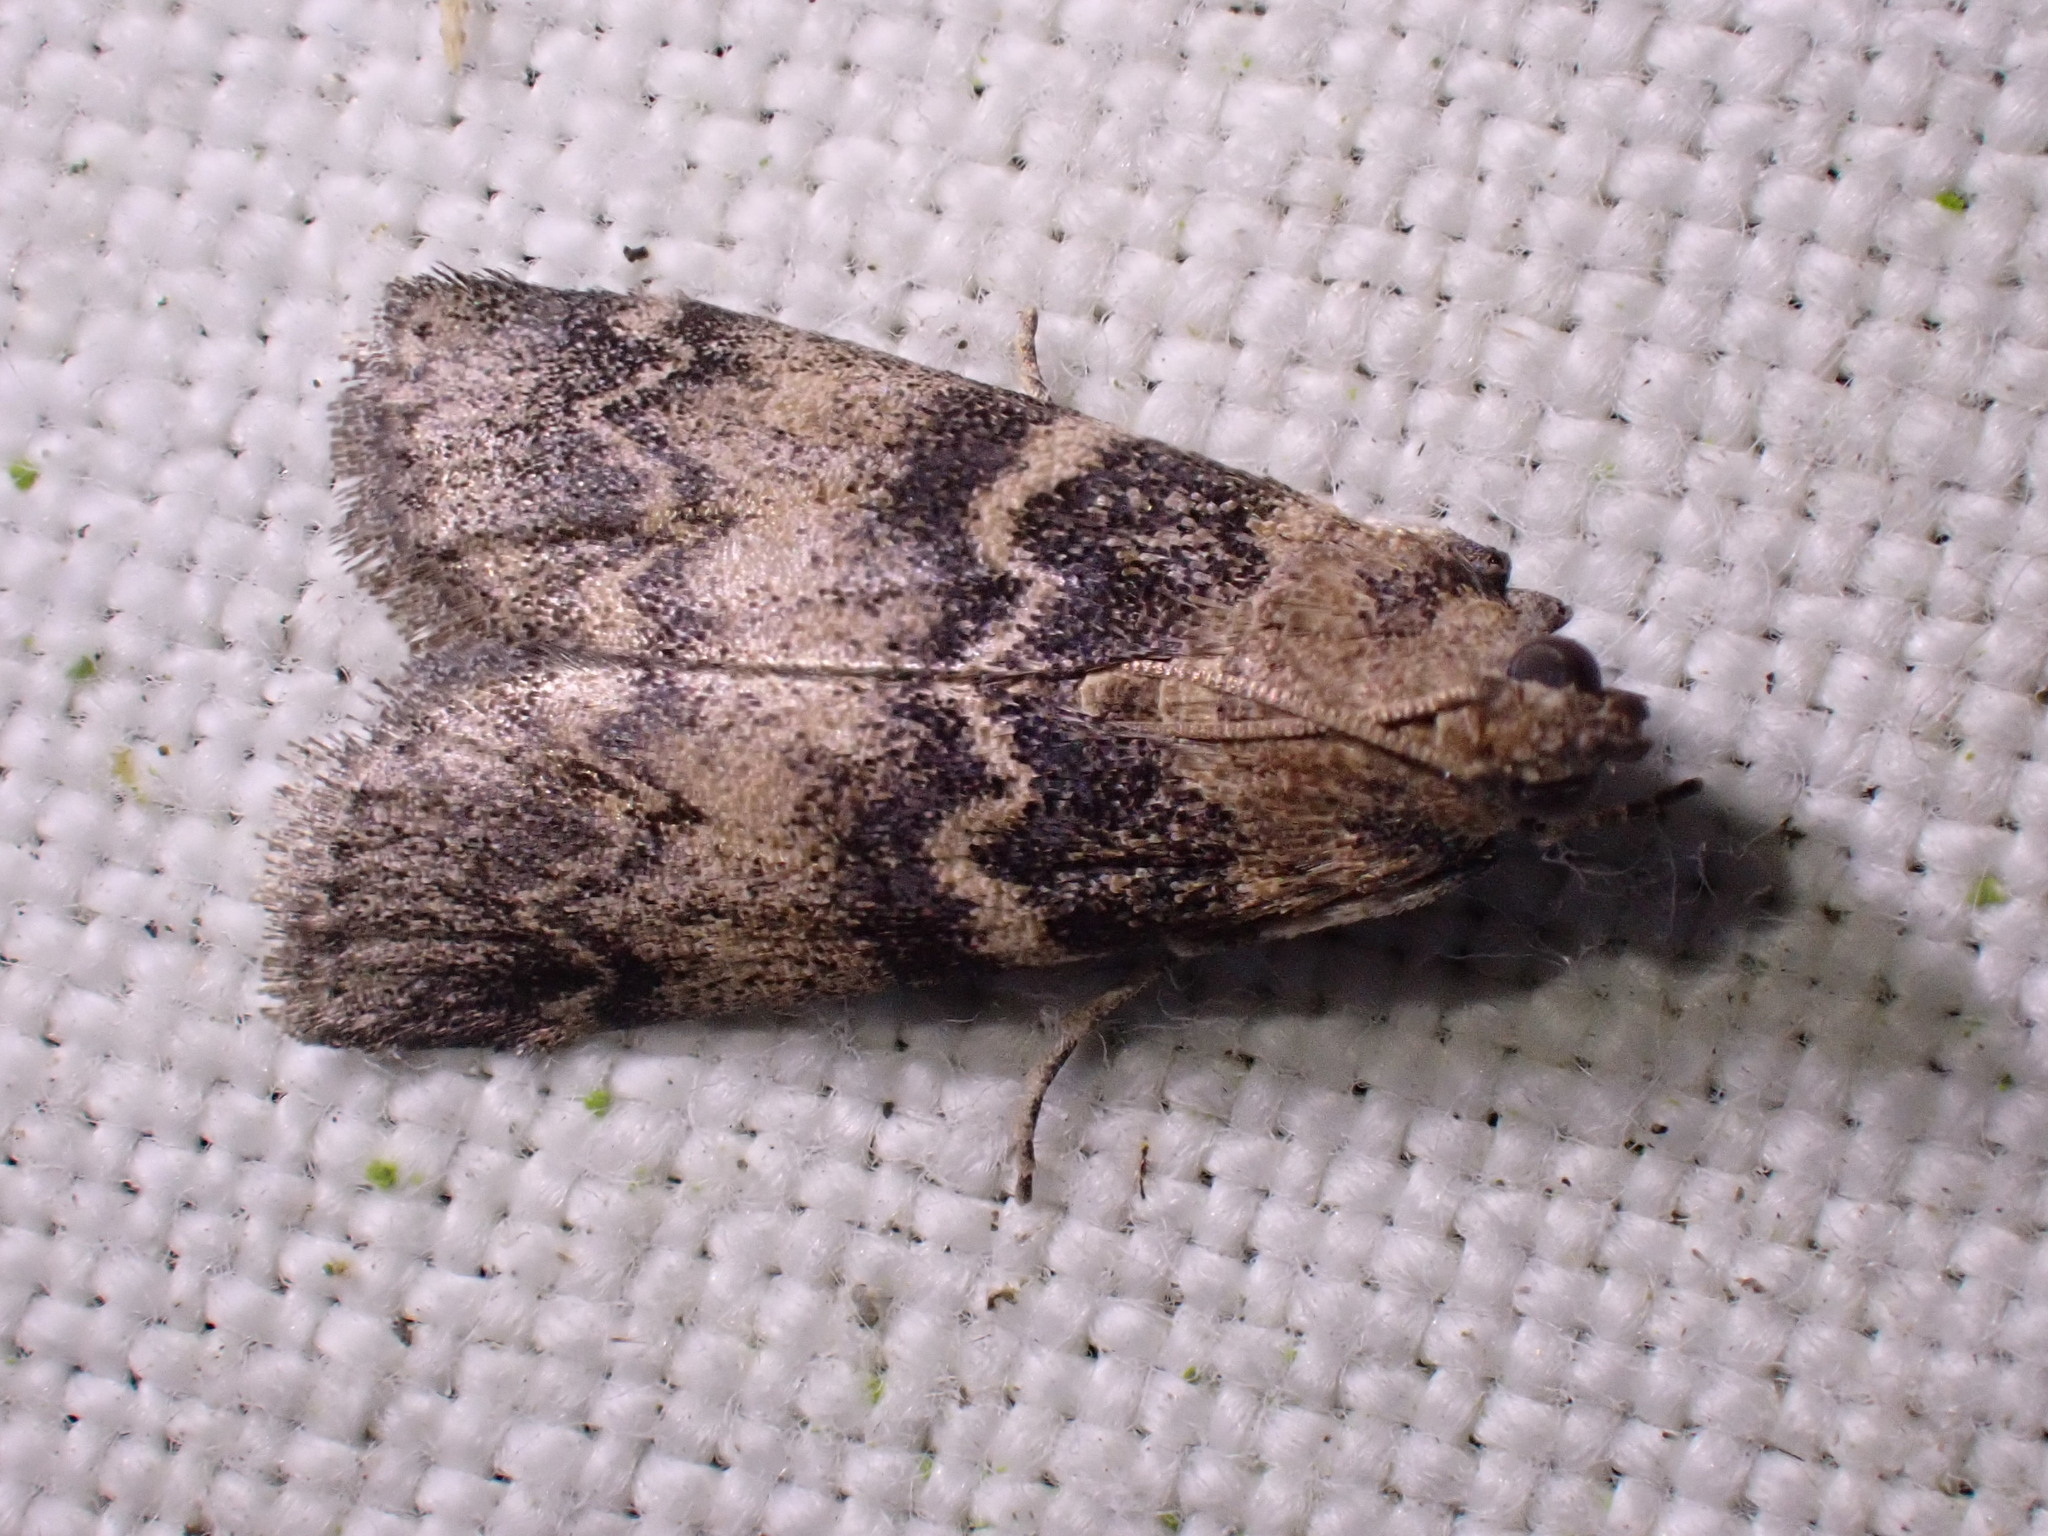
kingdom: Animalia
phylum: Arthropoda
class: Insecta
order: Lepidoptera
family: Pyralidae
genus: Euzophera
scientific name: Euzophera pinguis
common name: Ash-bark knot-horn
